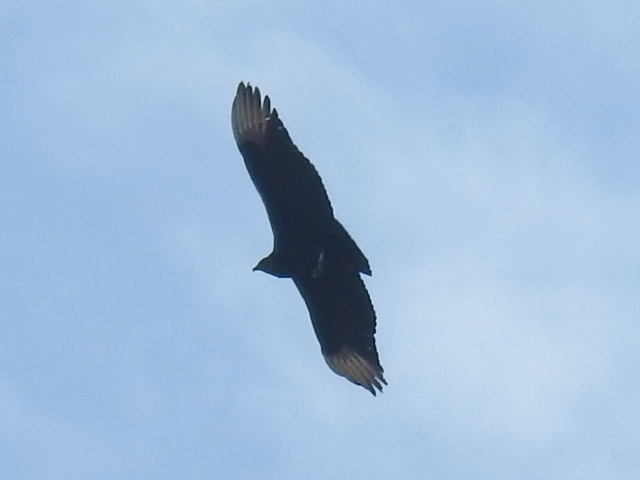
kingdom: Animalia
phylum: Chordata
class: Aves
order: Accipitriformes
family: Cathartidae
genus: Coragyps
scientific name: Coragyps atratus
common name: Black vulture
